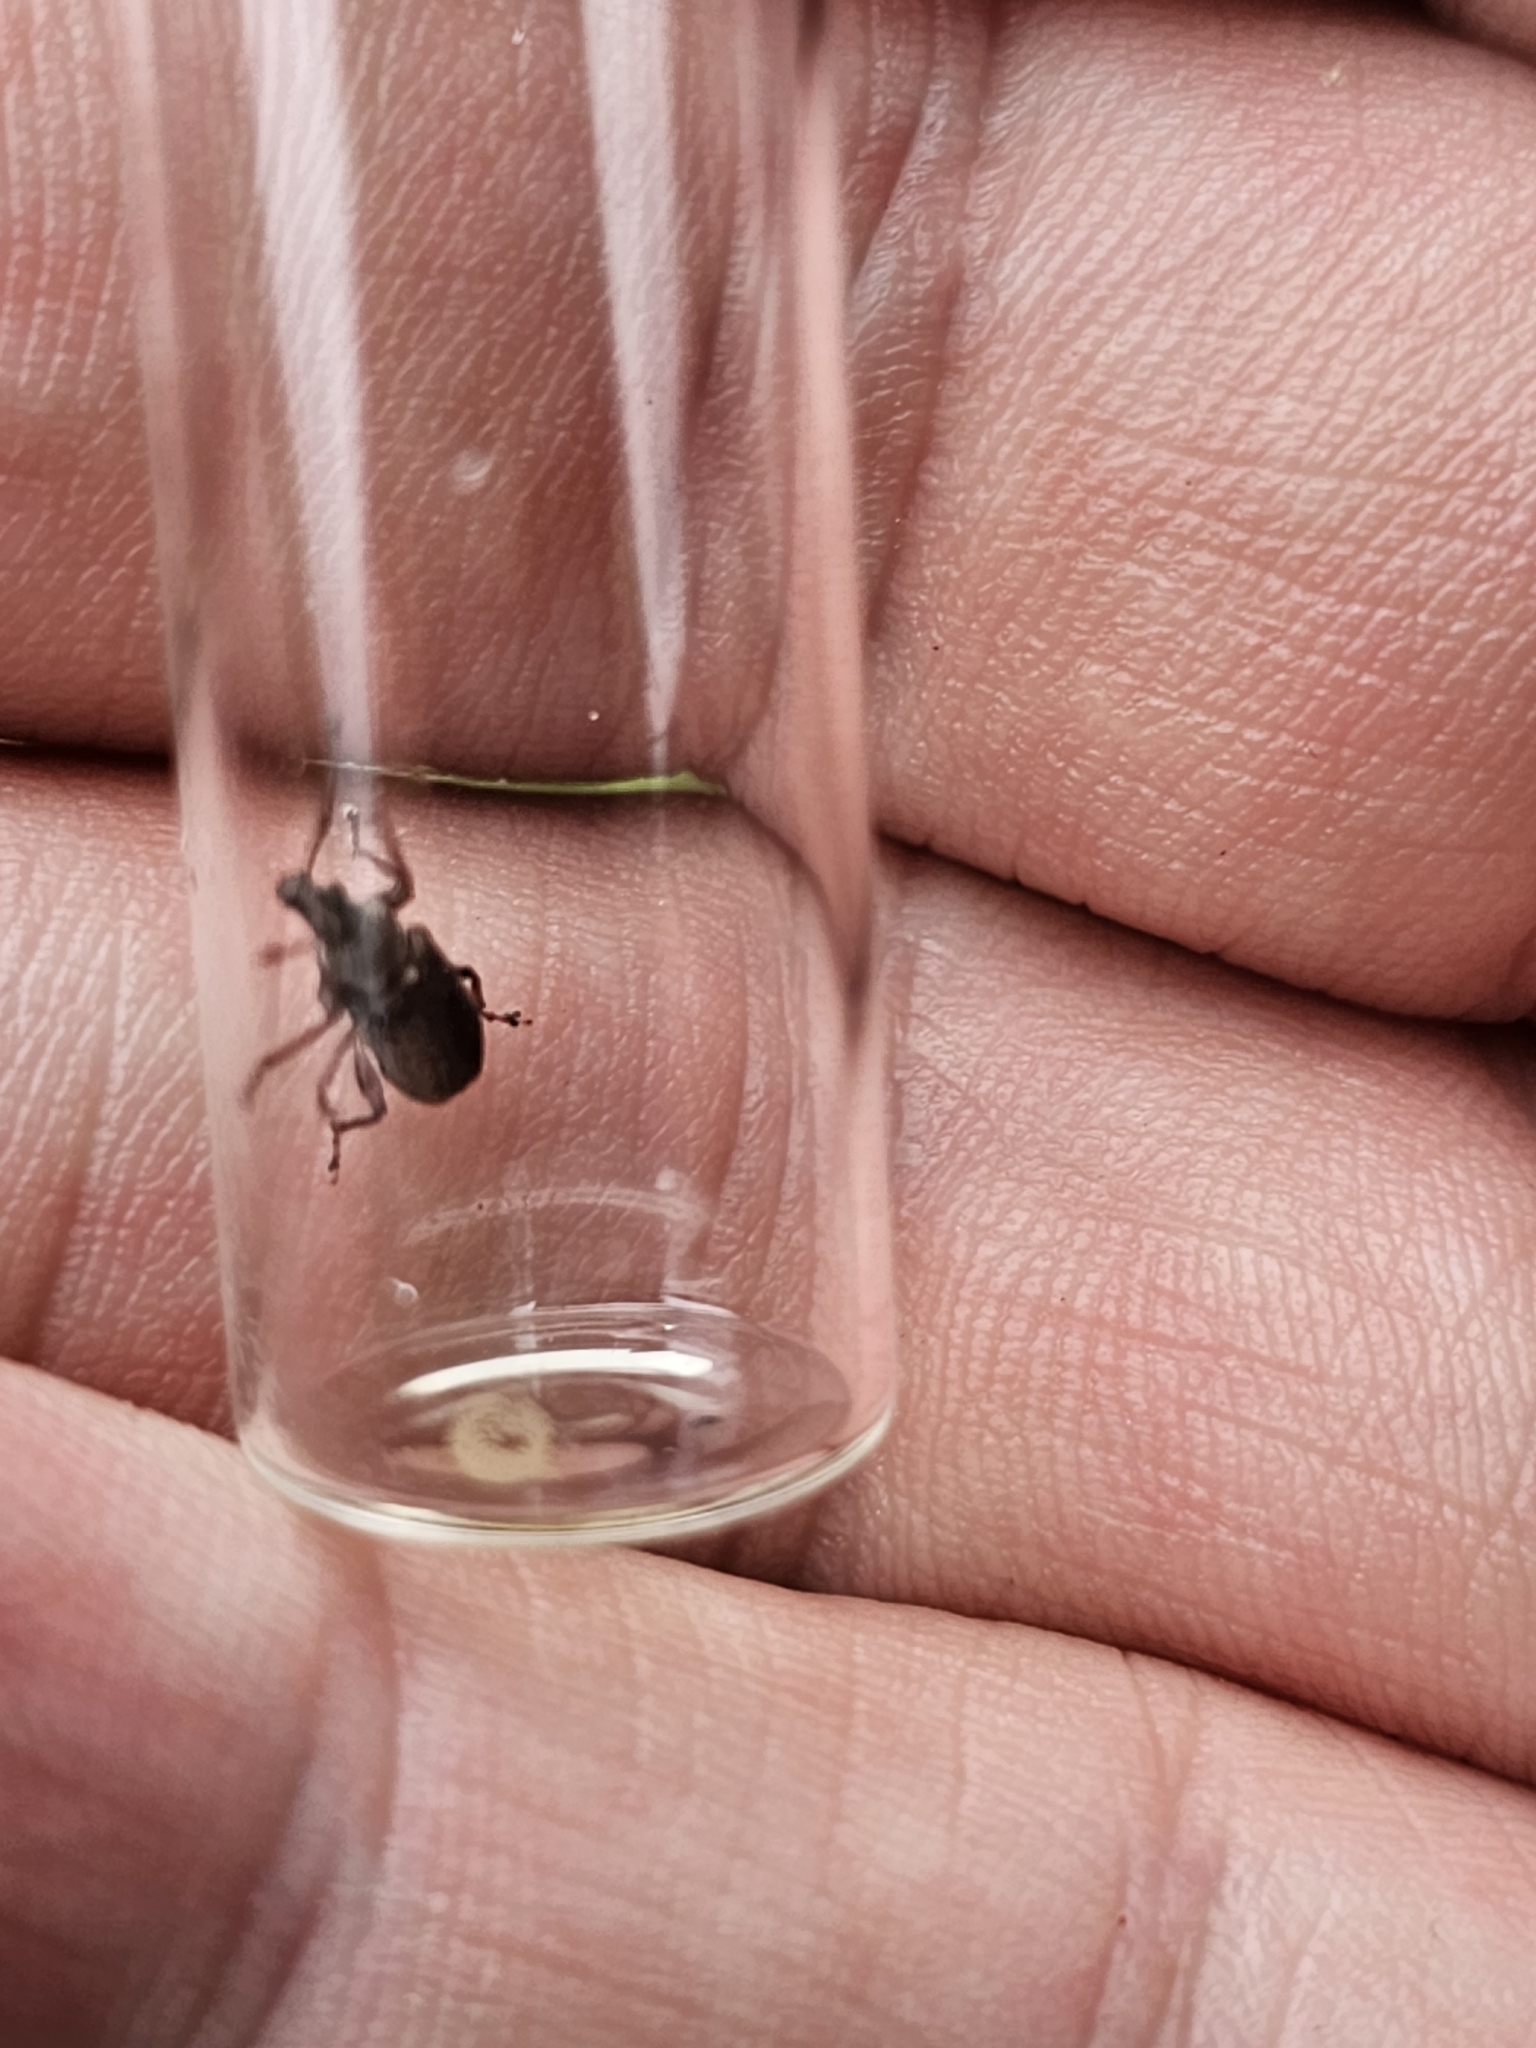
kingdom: Animalia
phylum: Arthropoda
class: Insecta
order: Coleoptera
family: Curculionidae
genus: Phyllobius
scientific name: Phyllobius pyri
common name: Common leaf weevil
